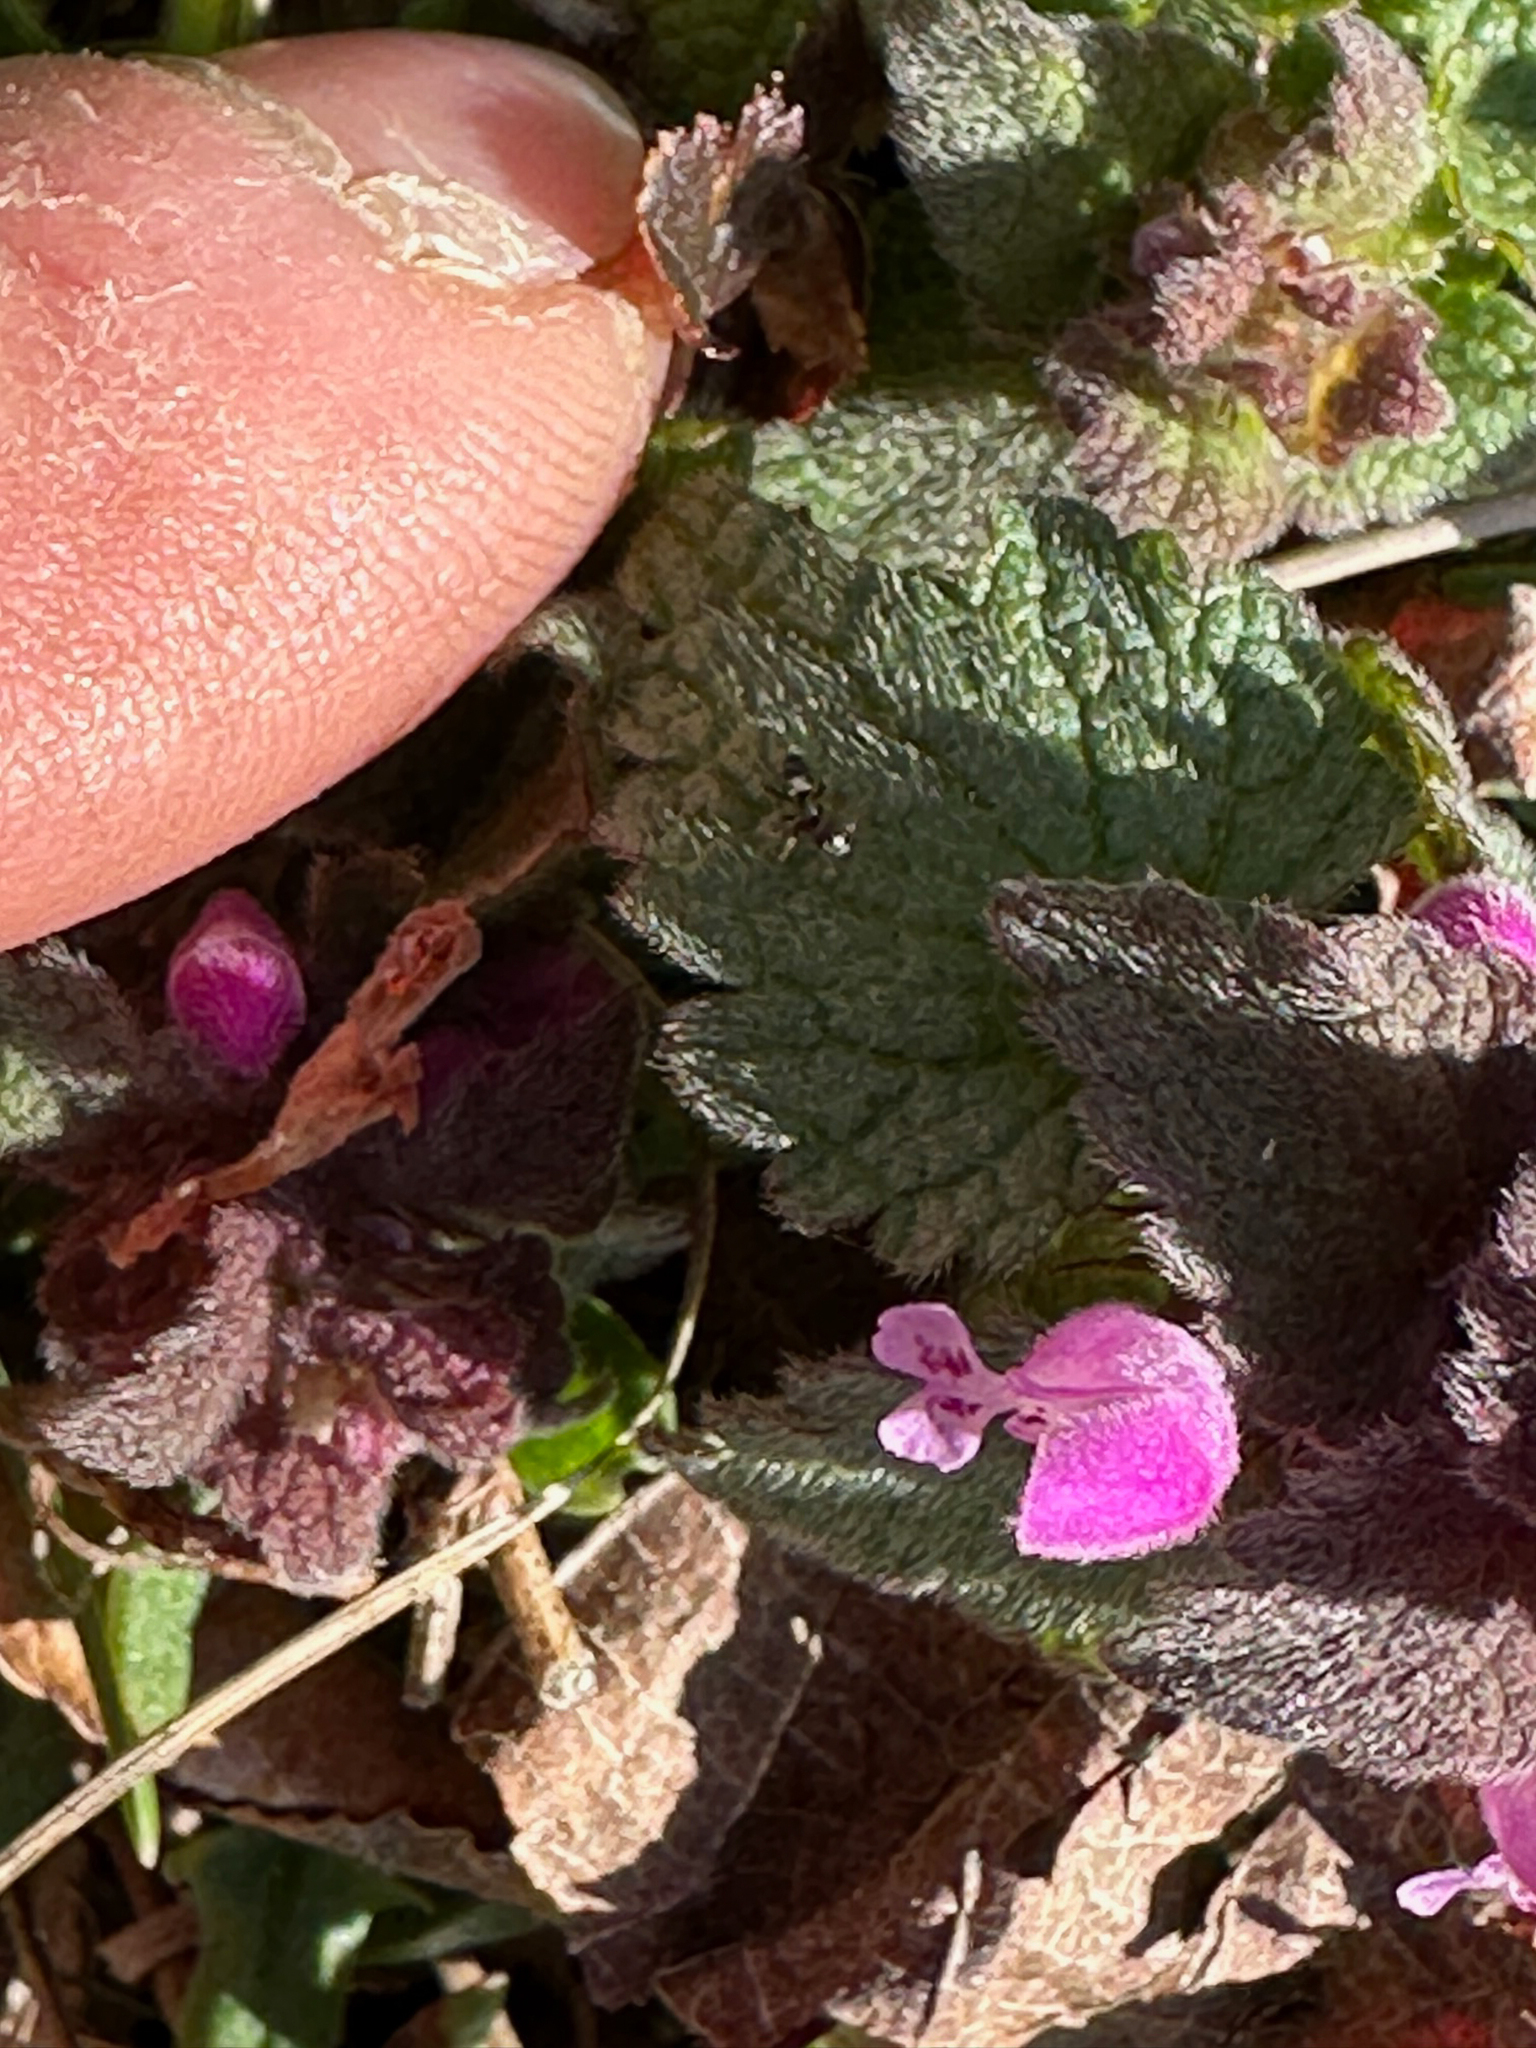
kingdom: Plantae
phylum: Tracheophyta
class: Magnoliopsida
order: Lamiales
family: Lamiaceae
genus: Lamium
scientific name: Lamium purpureum
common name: Red dead-nettle
